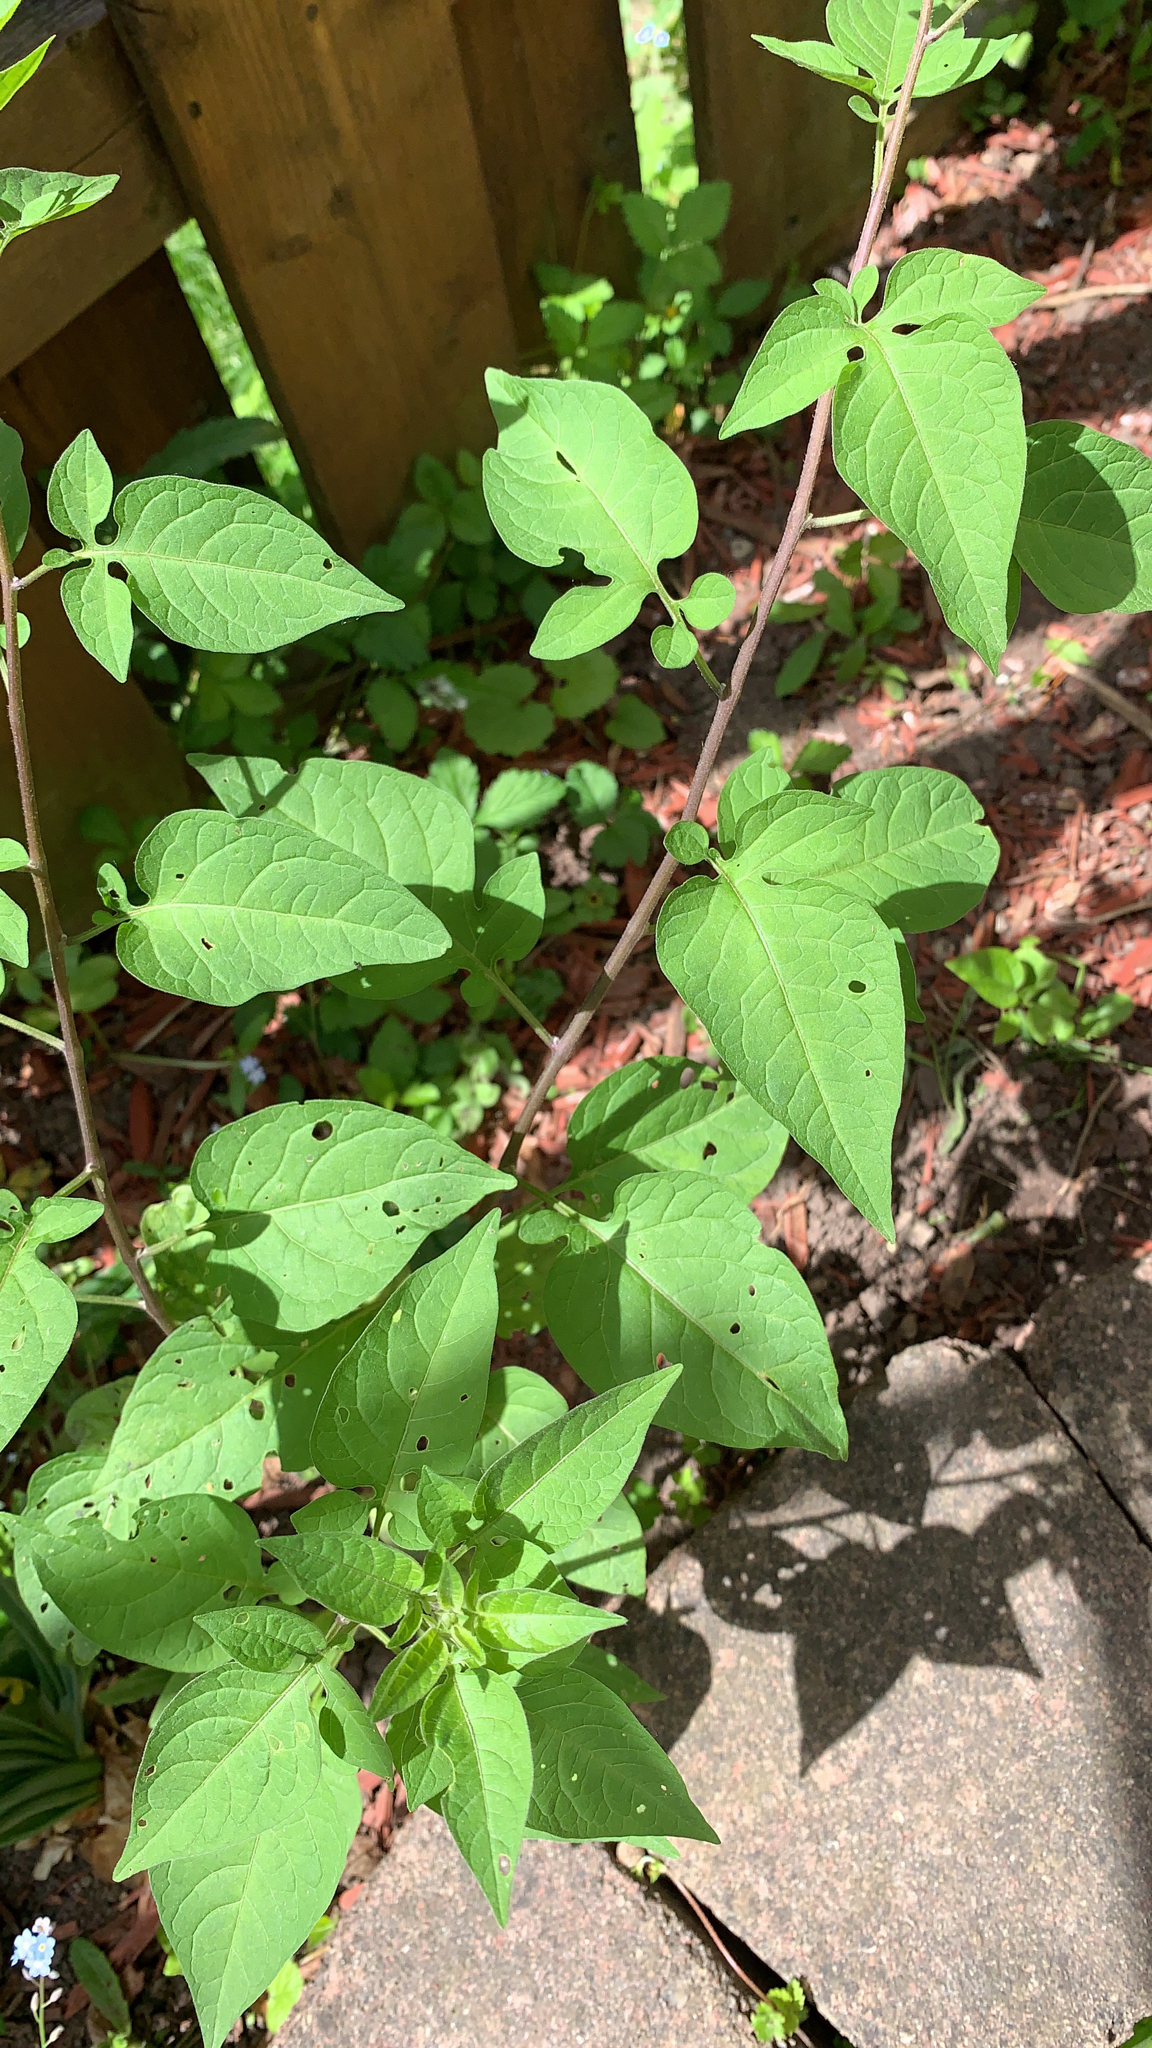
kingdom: Plantae
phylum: Tracheophyta
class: Magnoliopsida
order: Solanales
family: Solanaceae
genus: Solanum
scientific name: Solanum dulcamara
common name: Climbing nightshade
